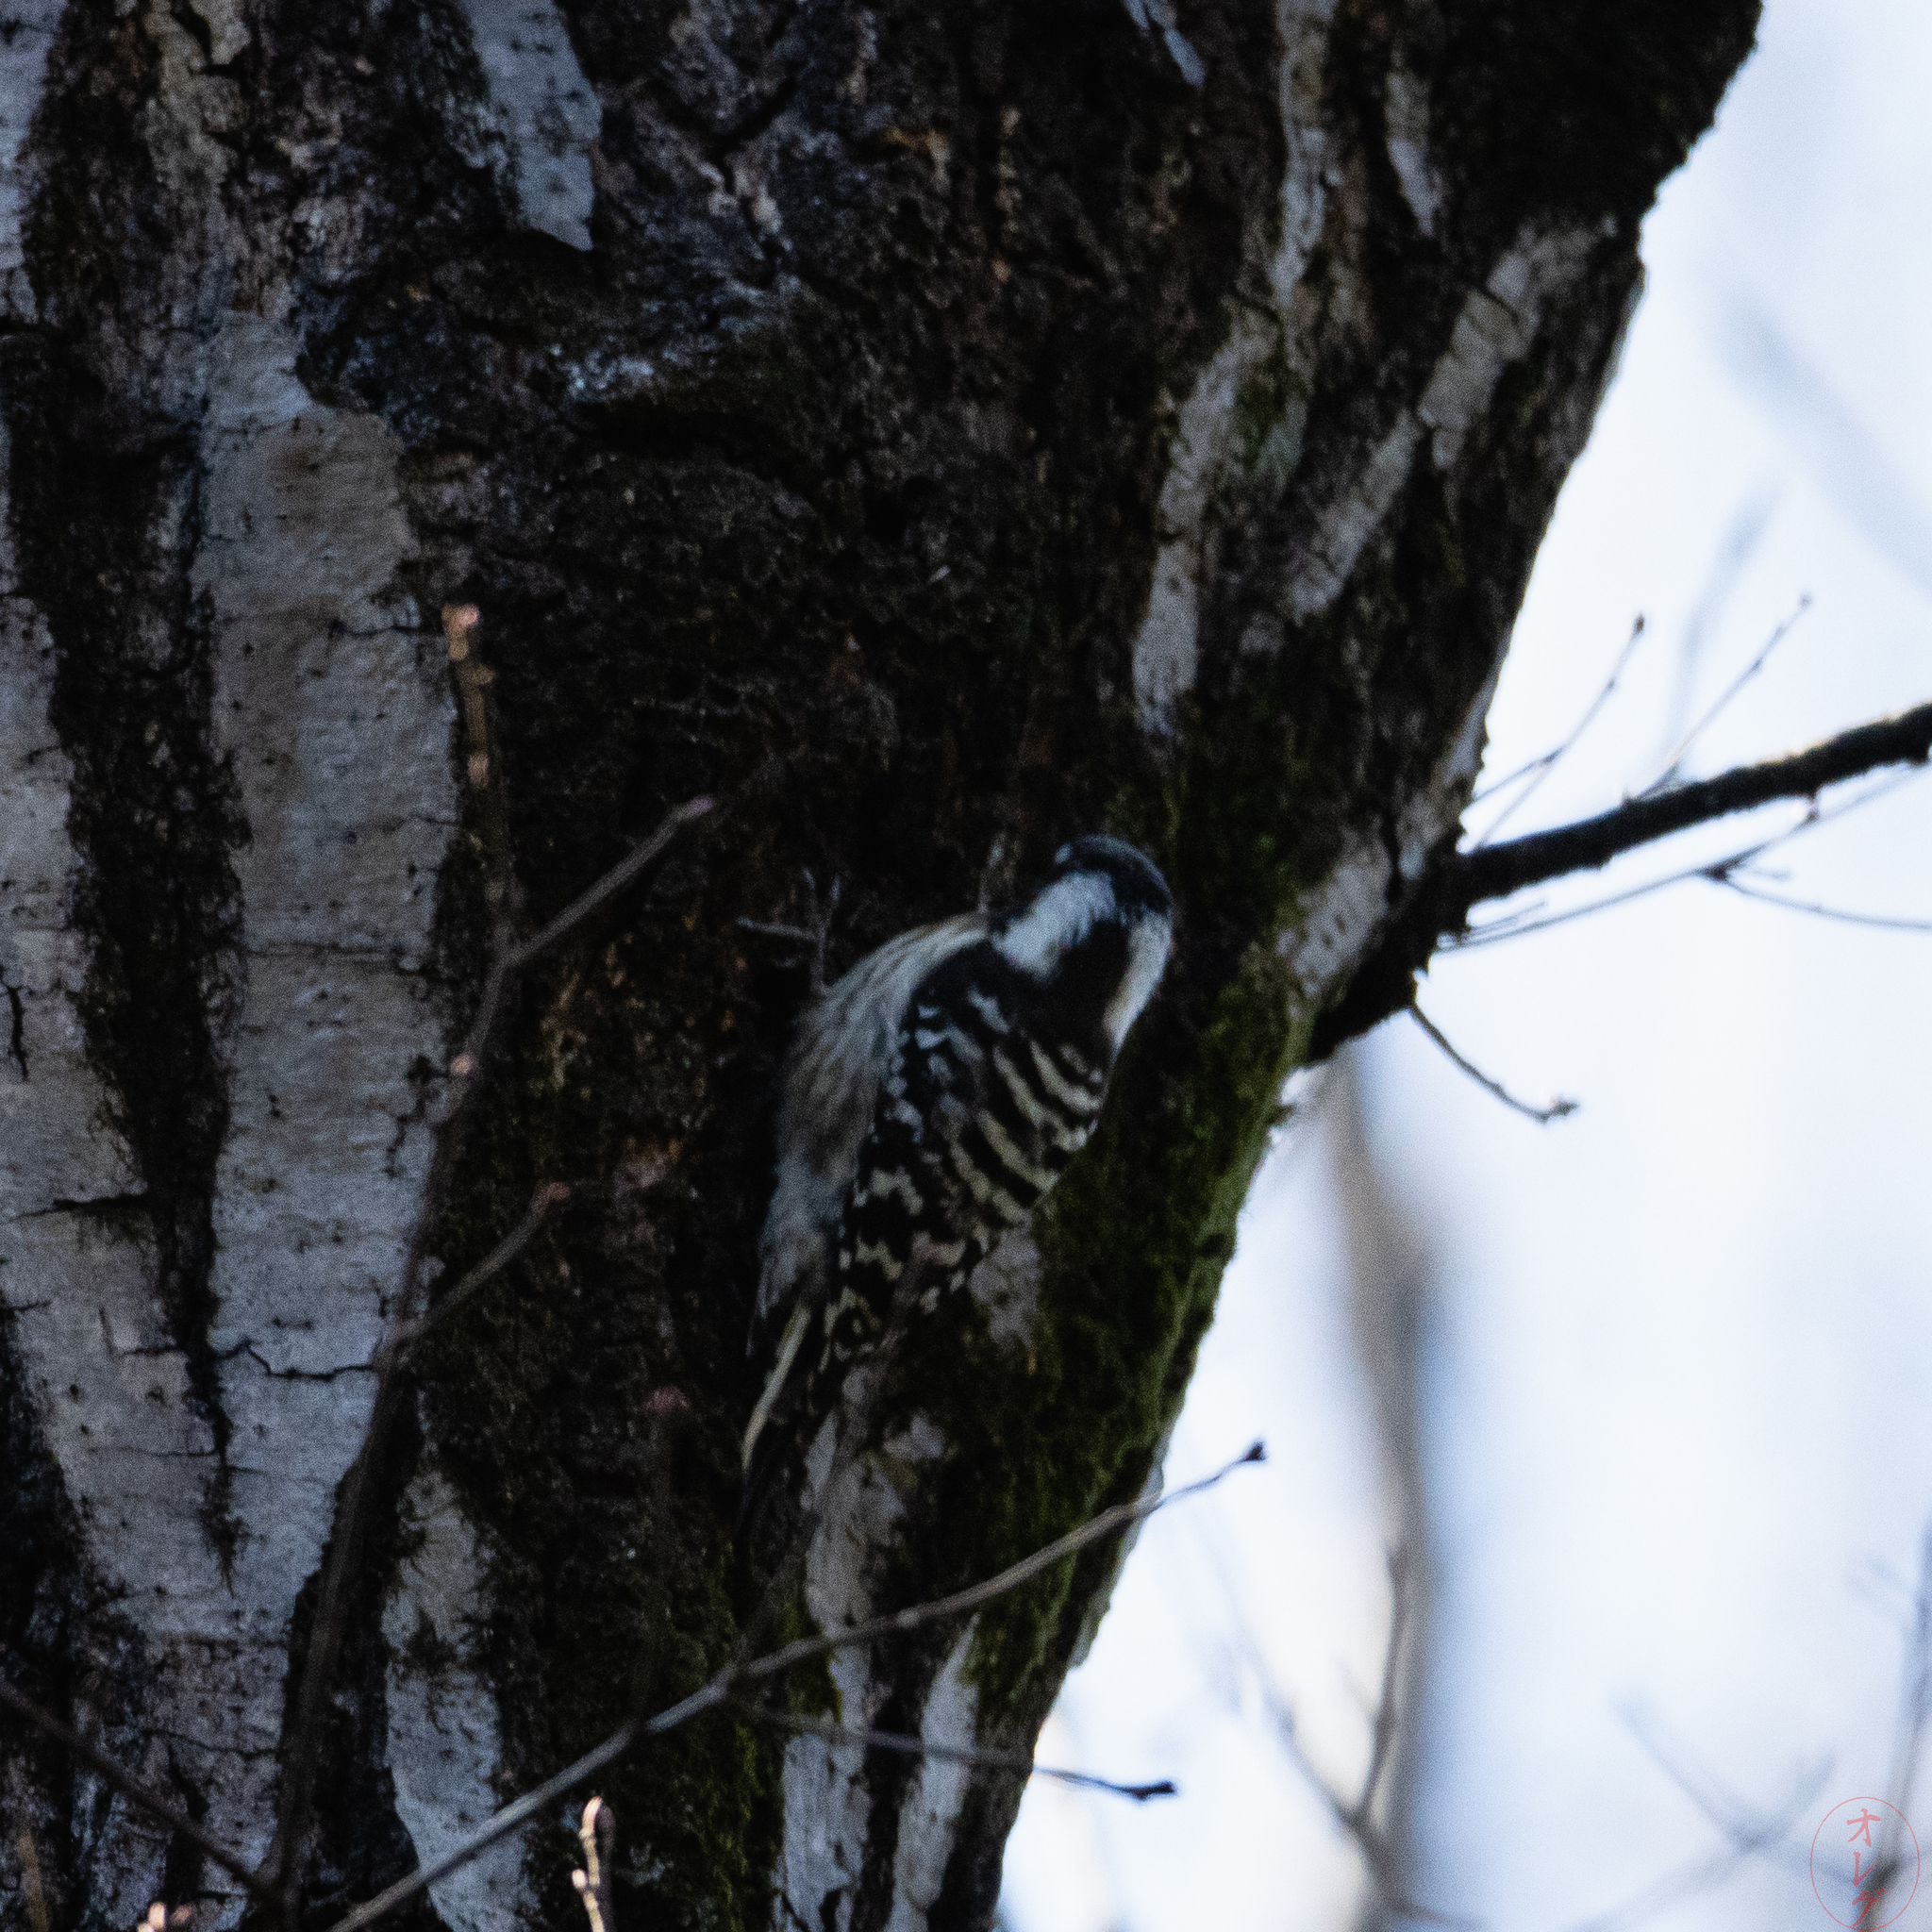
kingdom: Animalia
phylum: Chordata
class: Aves
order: Piciformes
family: Picidae
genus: Yungipicus
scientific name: Yungipicus kizuki
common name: Japanese pygmy woodpecker
